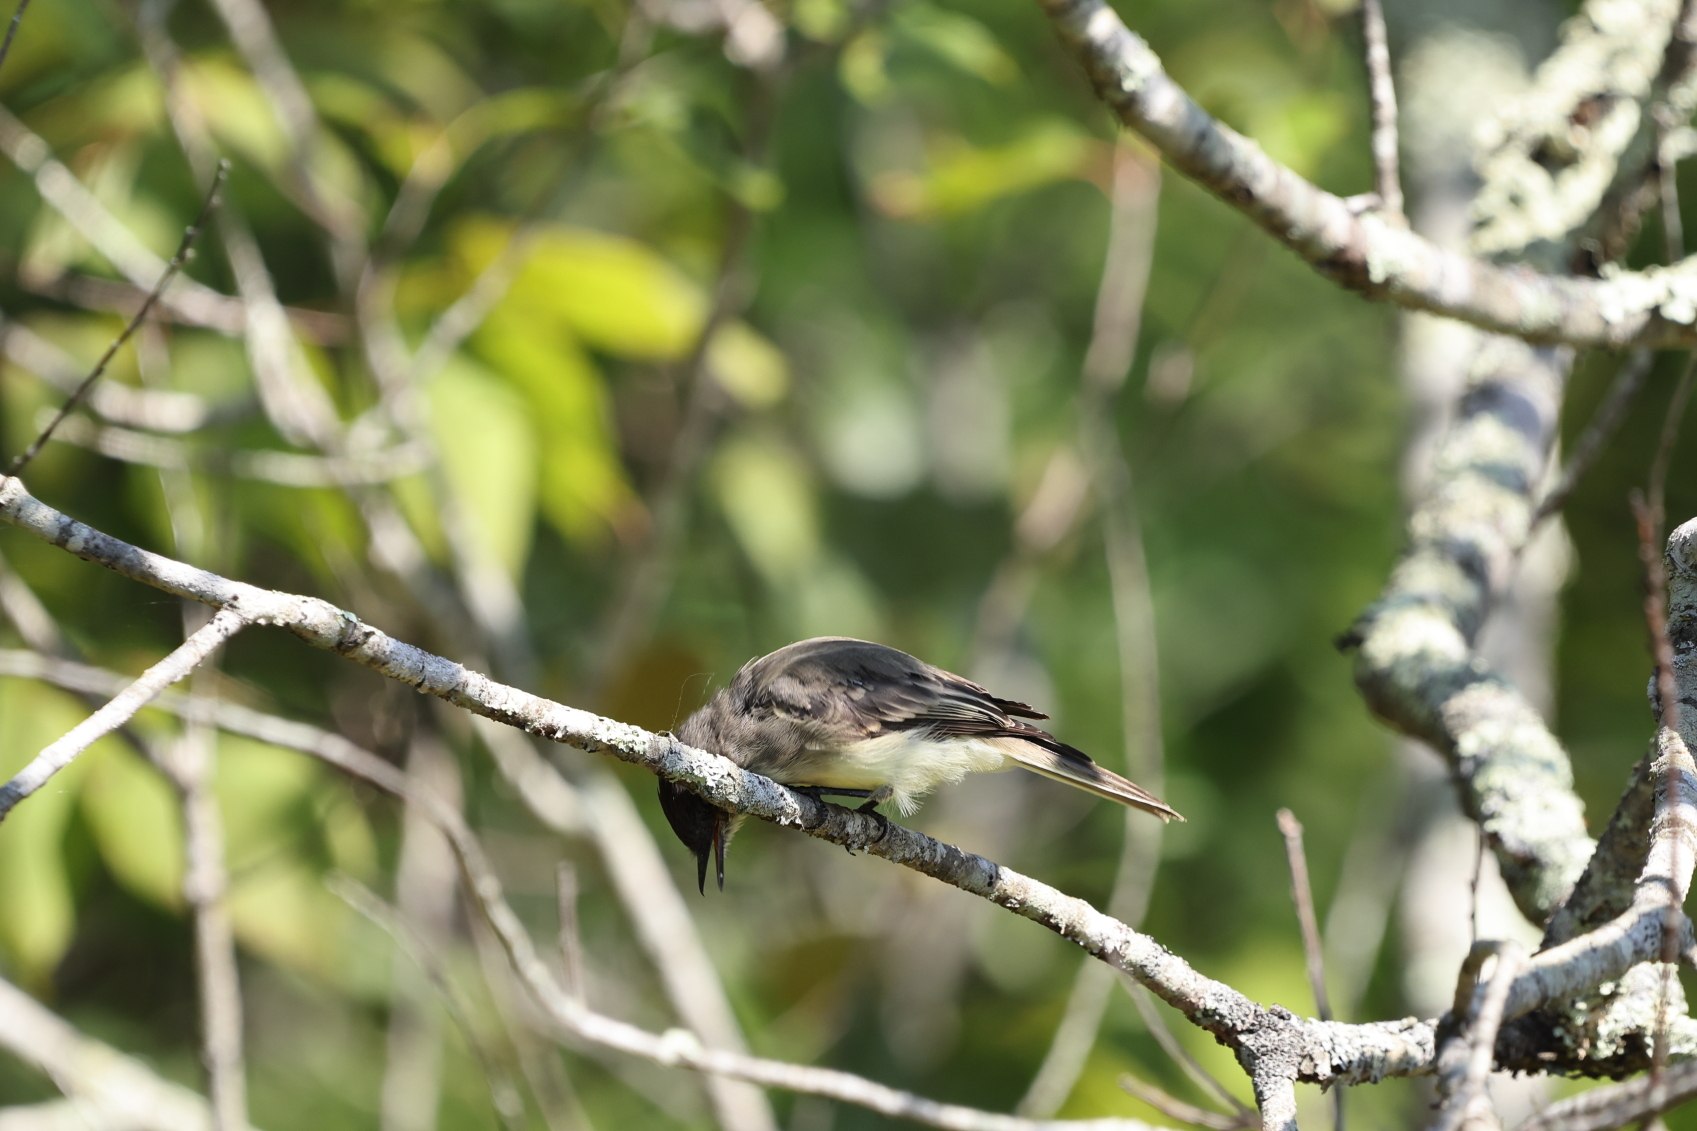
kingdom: Animalia
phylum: Chordata
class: Aves
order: Passeriformes
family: Tyrannidae
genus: Sayornis
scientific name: Sayornis phoebe
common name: Eastern phoebe
